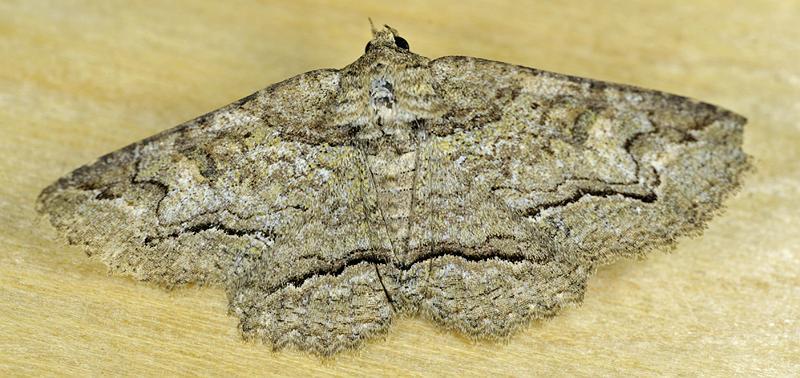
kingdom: Animalia
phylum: Arthropoda
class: Insecta
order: Lepidoptera
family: Erebidae
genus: Zale
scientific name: Zale galbanata
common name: Maple zale
